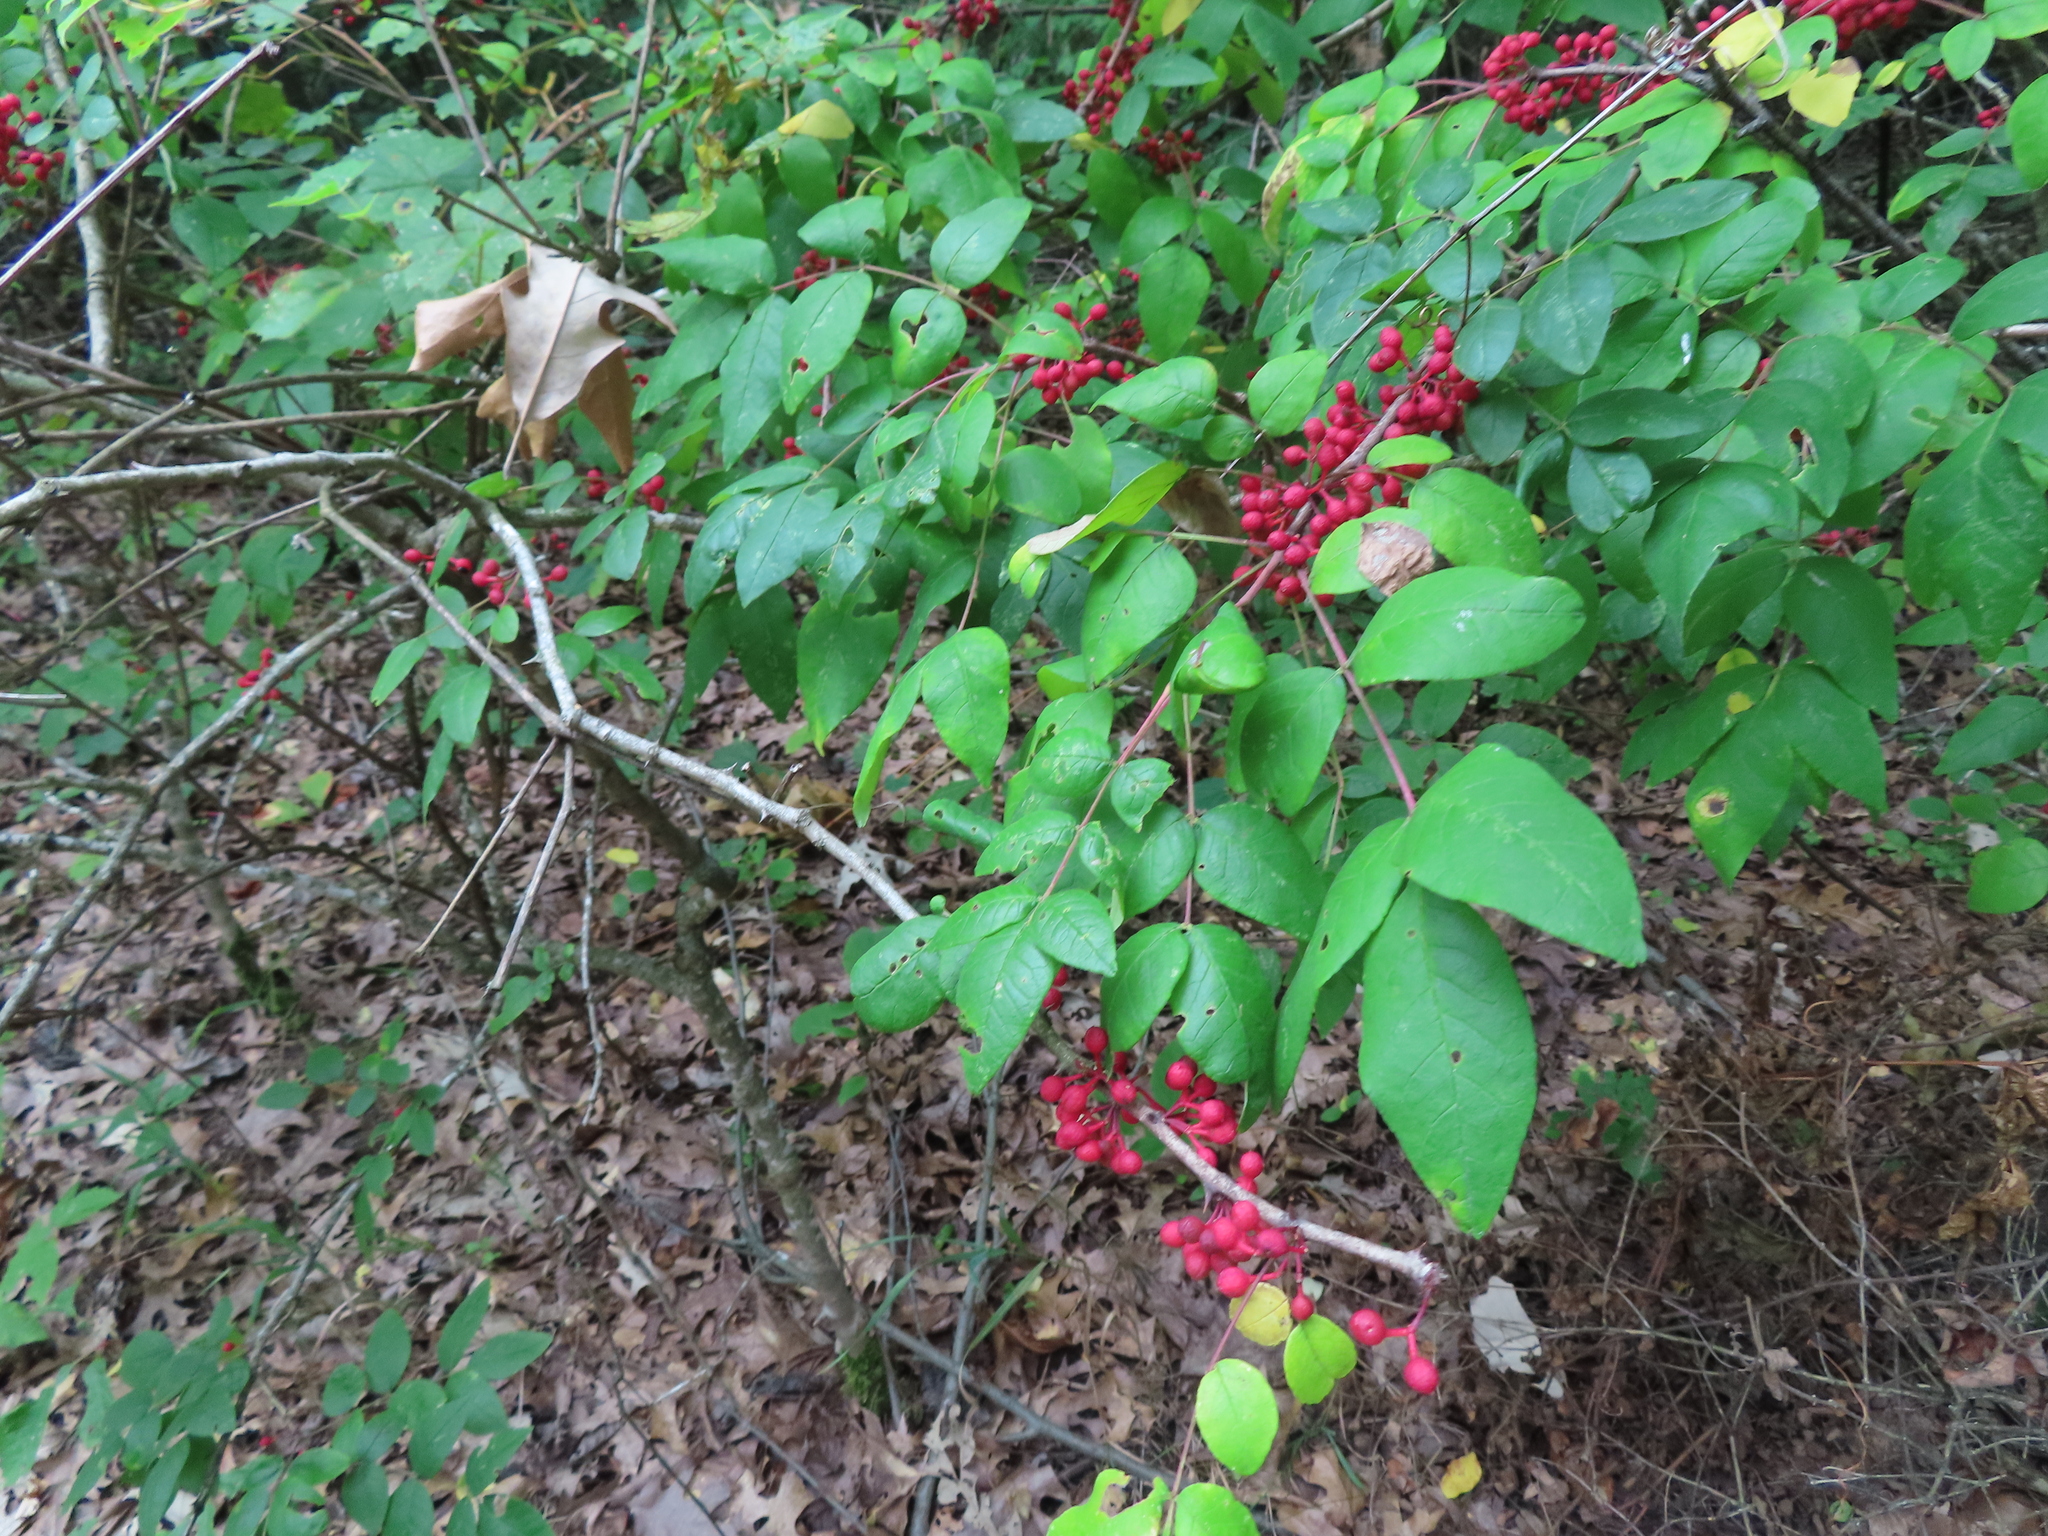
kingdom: Plantae
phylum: Tracheophyta
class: Magnoliopsida
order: Sapindales
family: Rutaceae
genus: Zanthoxylum
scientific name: Zanthoxylum americanum
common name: Northern prickly-ash
